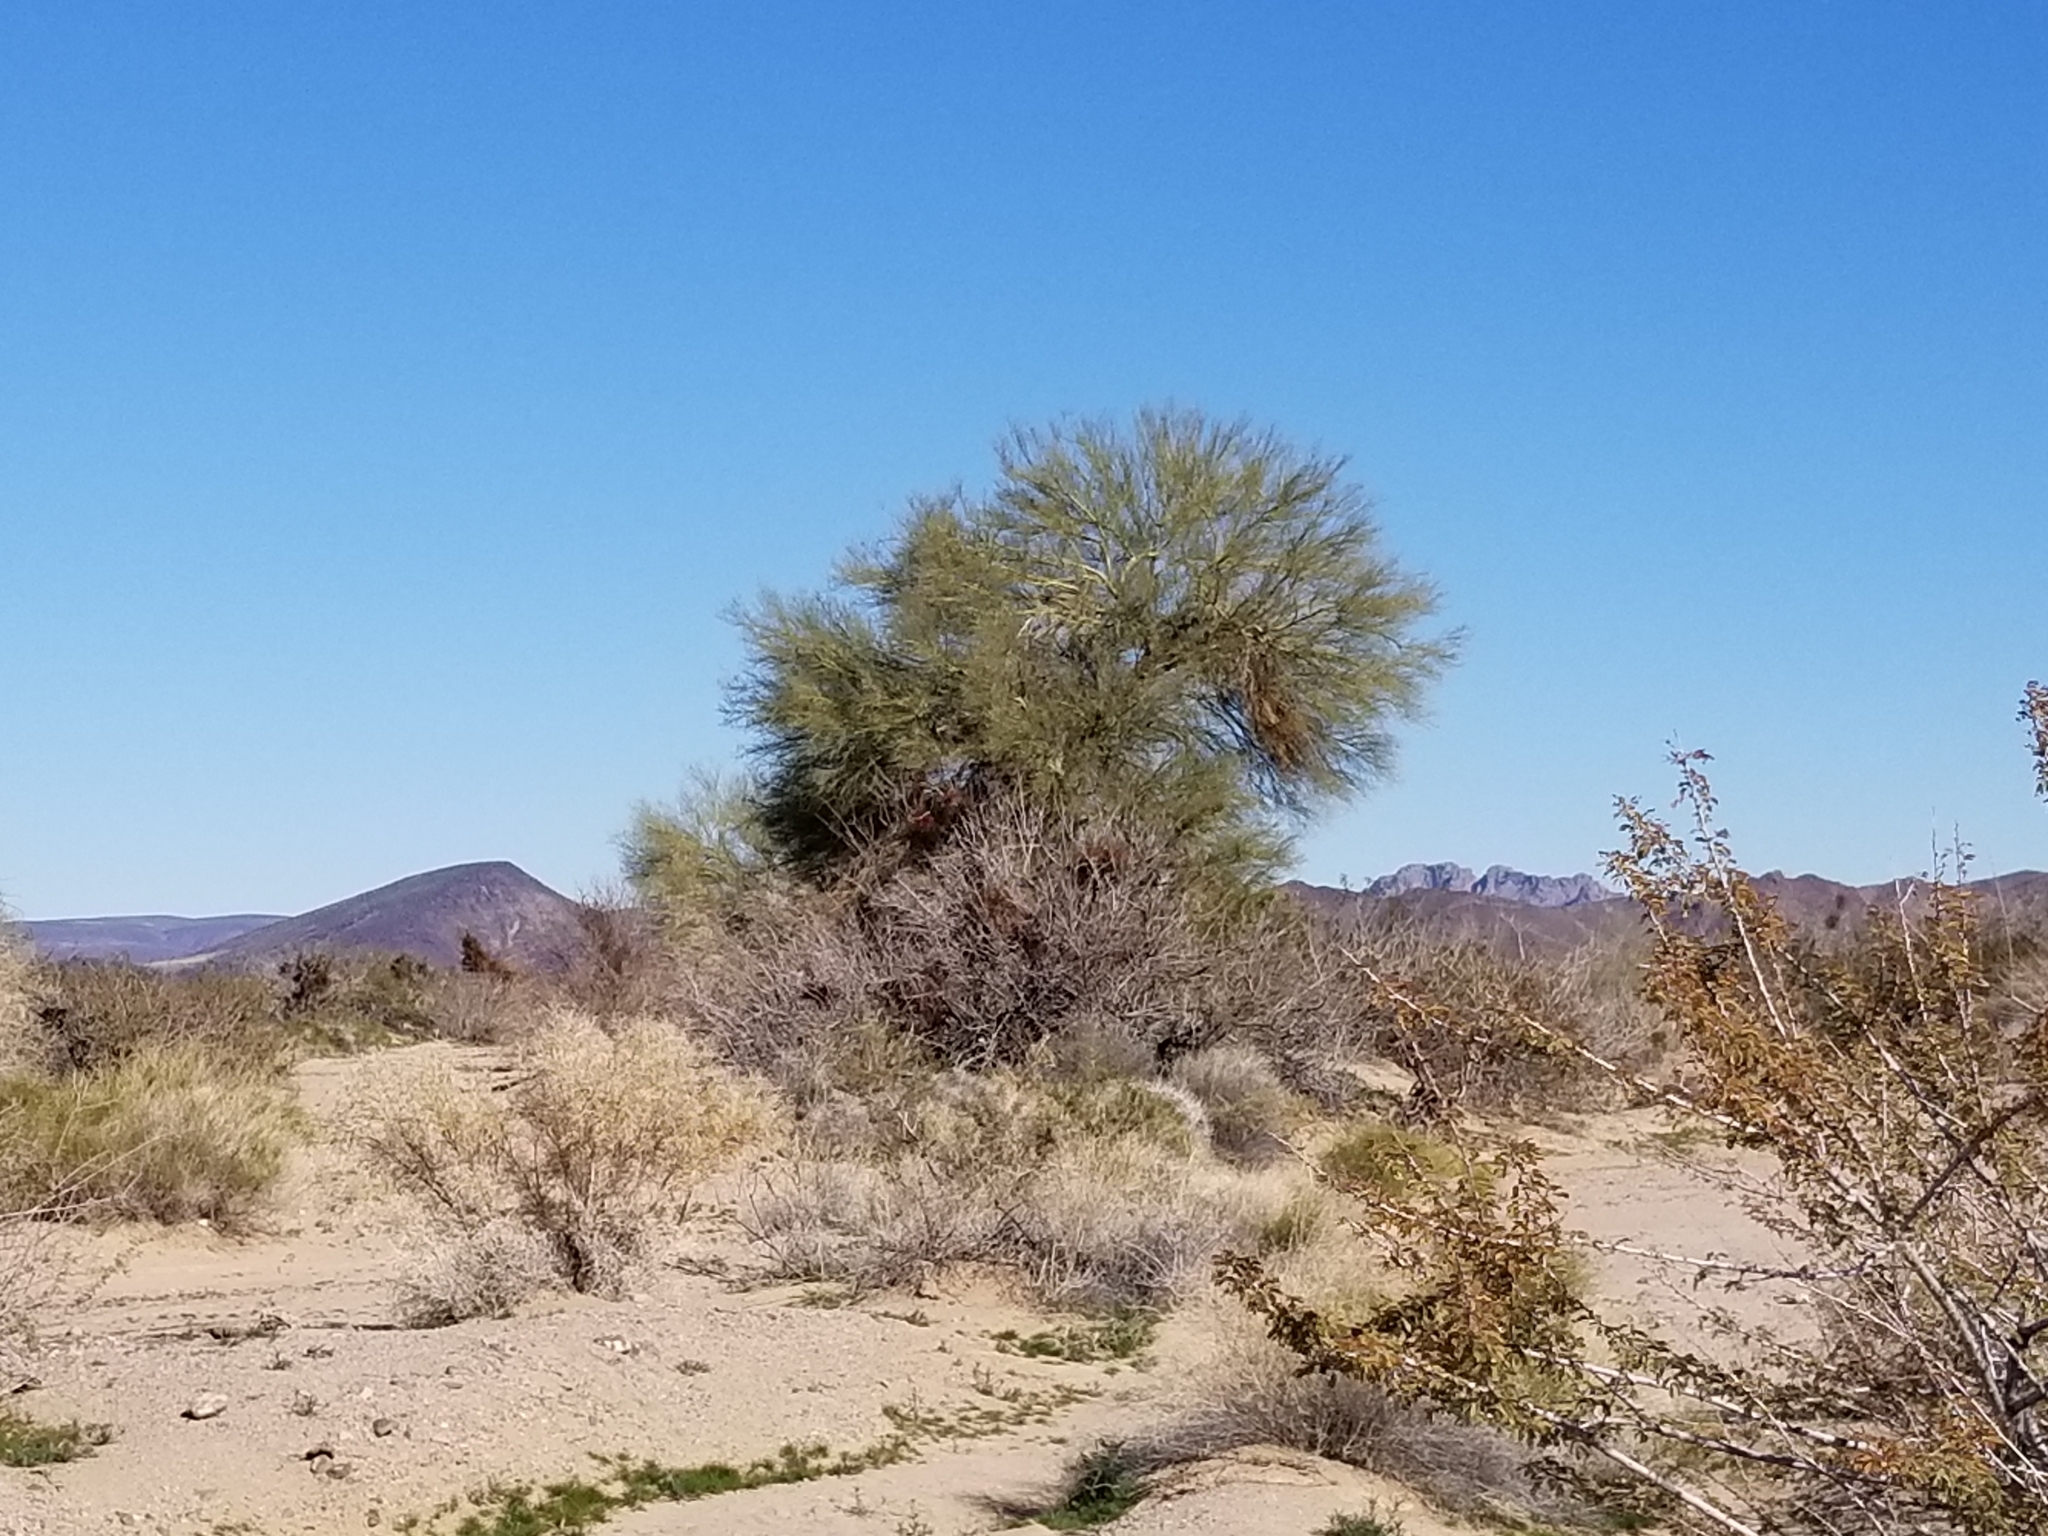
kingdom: Plantae
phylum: Tracheophyta
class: Magnoliopsida
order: Fabales
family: Fabaceae
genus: Parkinsonia
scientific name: Parkinsonia florida
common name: Blue paloverde
